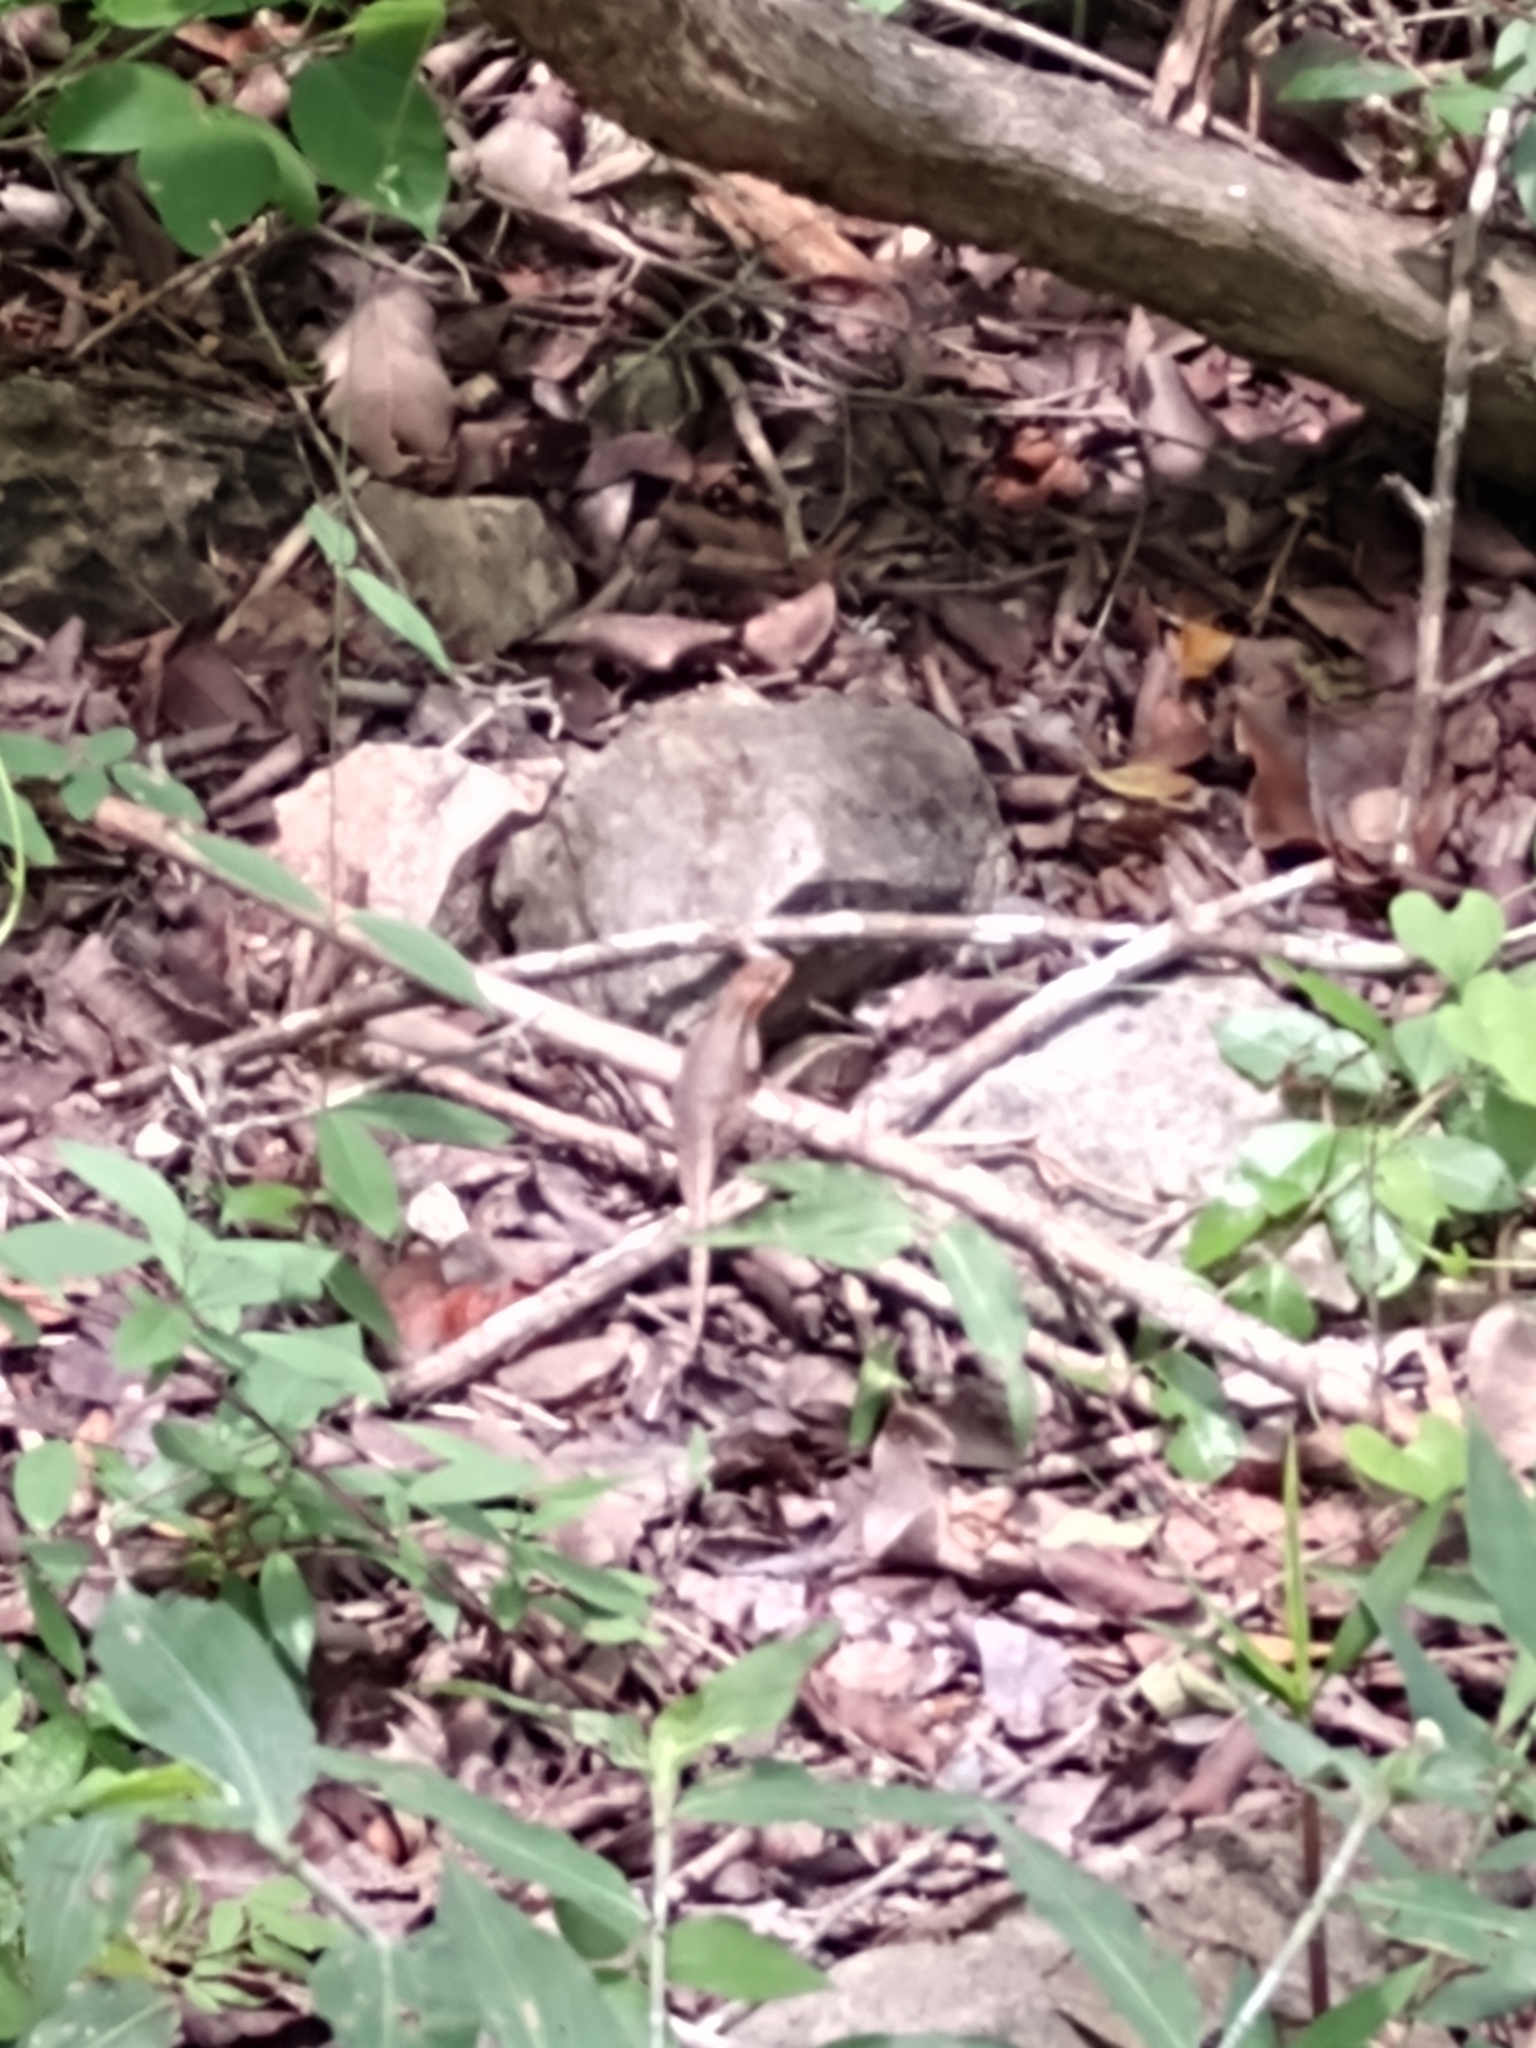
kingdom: Animalia
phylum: Chordata
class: Squamata
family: Phrynosomatidae
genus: Sceloporus
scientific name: Sceloporus chrysostictus
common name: Yellow-spotted spiny lizard
